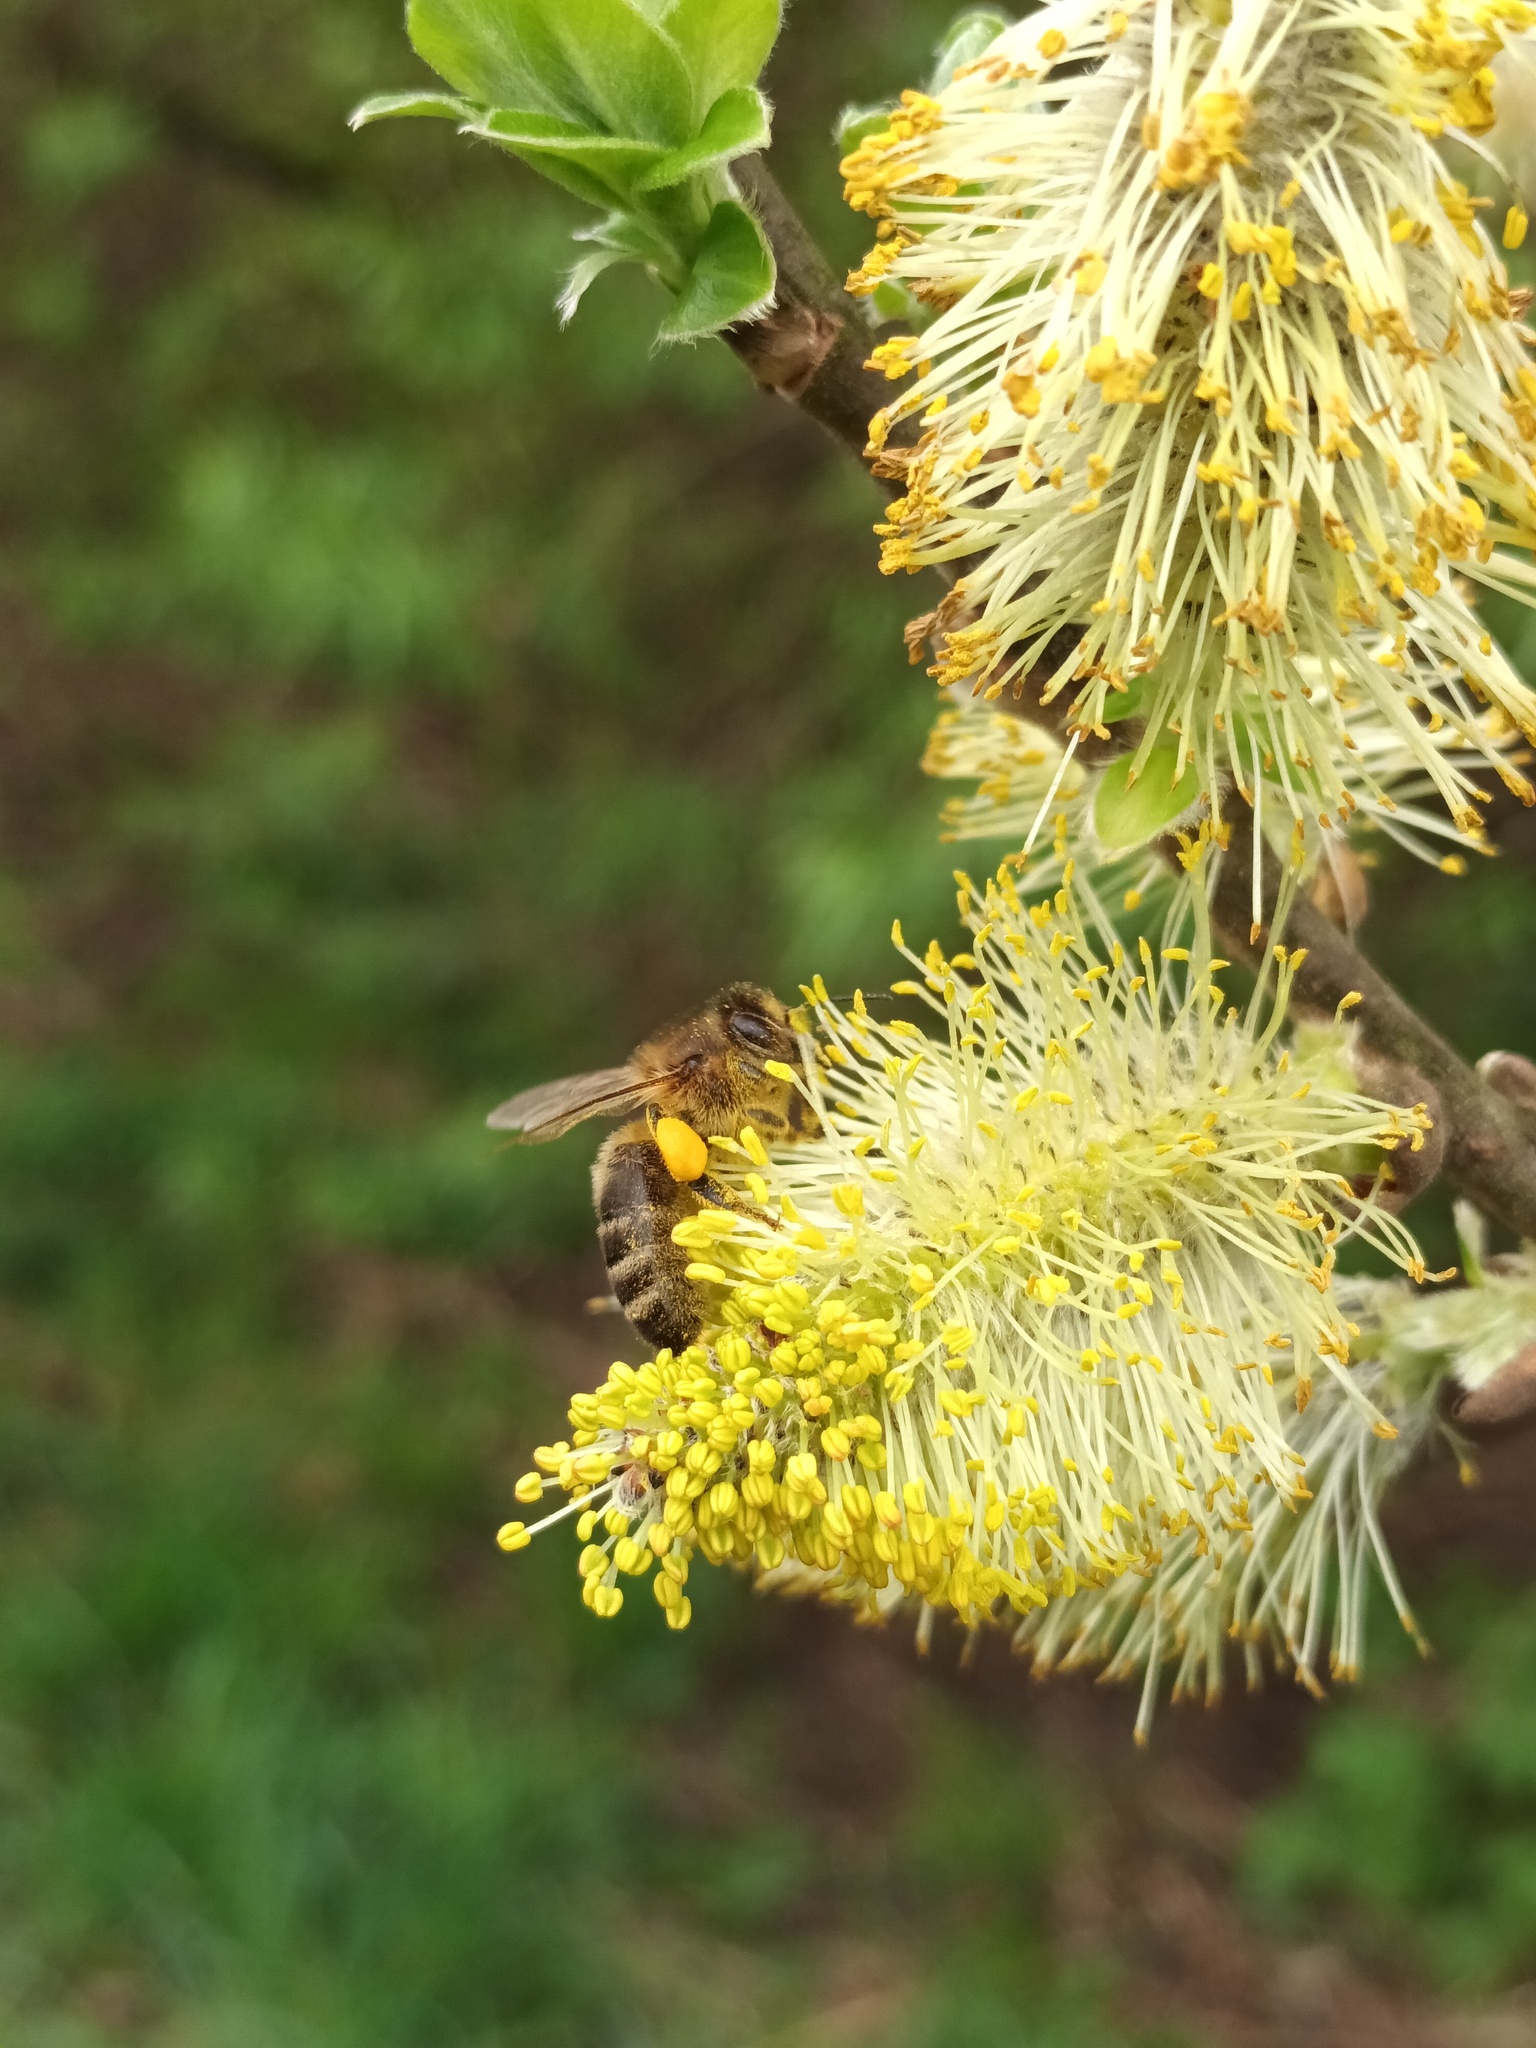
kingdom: Animalia
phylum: Arthropoda
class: Insecta
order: Hymenoptera
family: Apidae
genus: Apis
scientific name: Apis mellifera
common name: Honey bee
